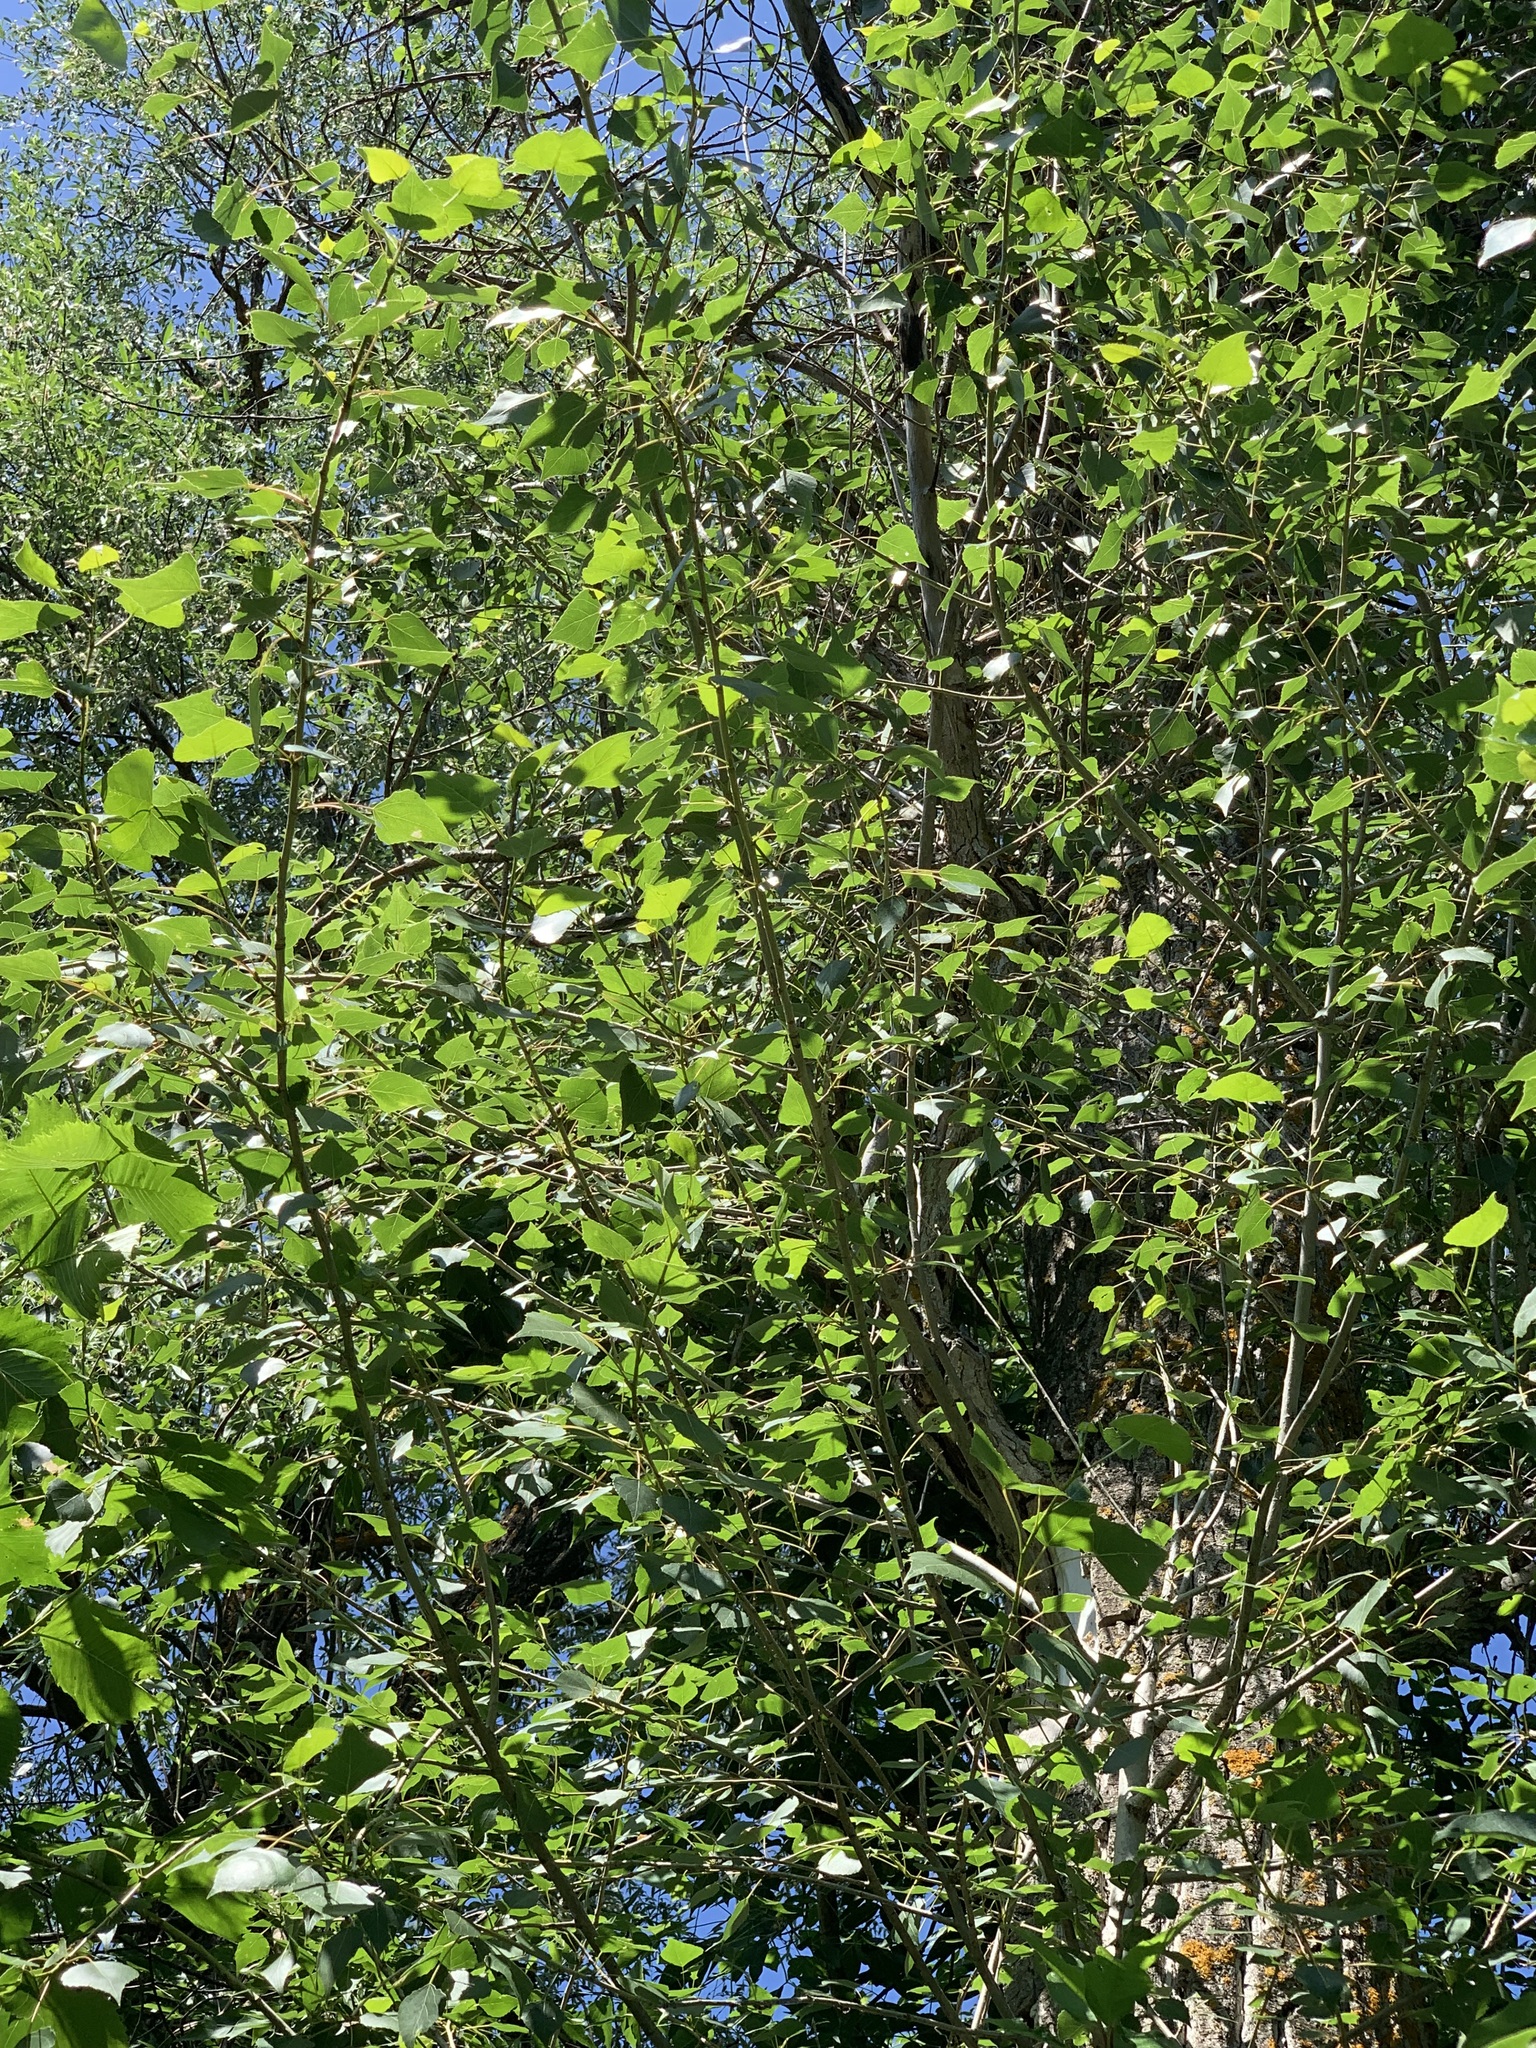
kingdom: Plantae
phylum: Tracheophyta
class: Magnoliopsida
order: Malpighiales
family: Salicaceae
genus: Populus
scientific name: Populus nigra
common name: Black poplar
